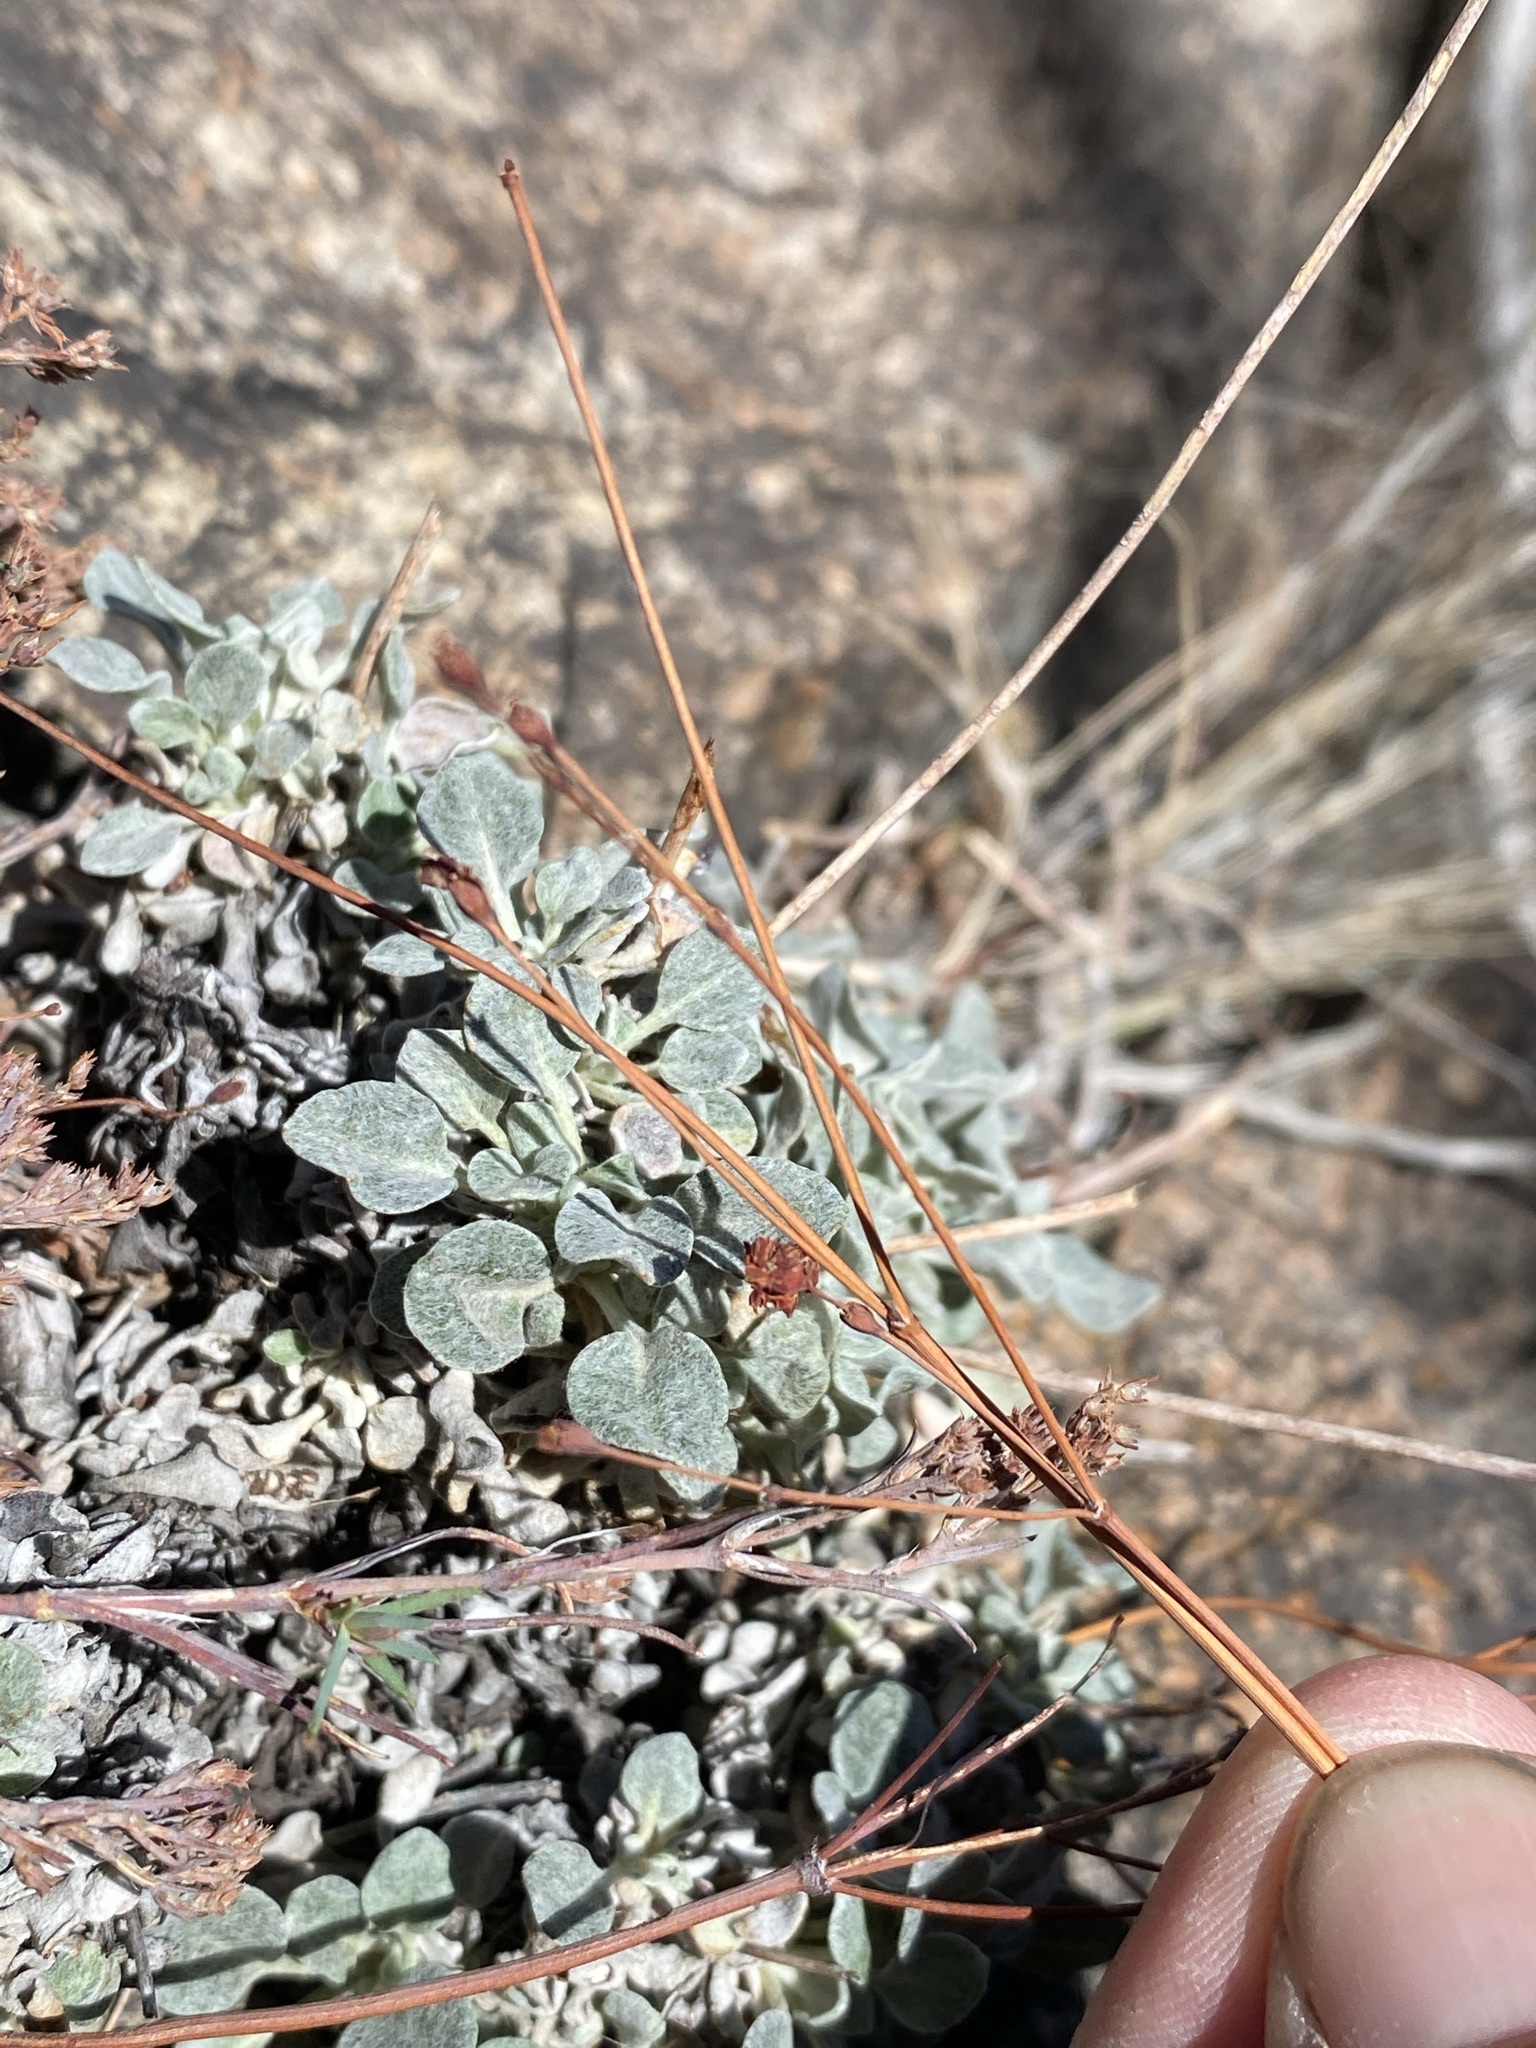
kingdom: Plantae
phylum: Tracheophyta
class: Magnoliopsida
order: Caryophyllales
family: Polygonaceae
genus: Eriogonum
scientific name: Eriogonum tenellum
